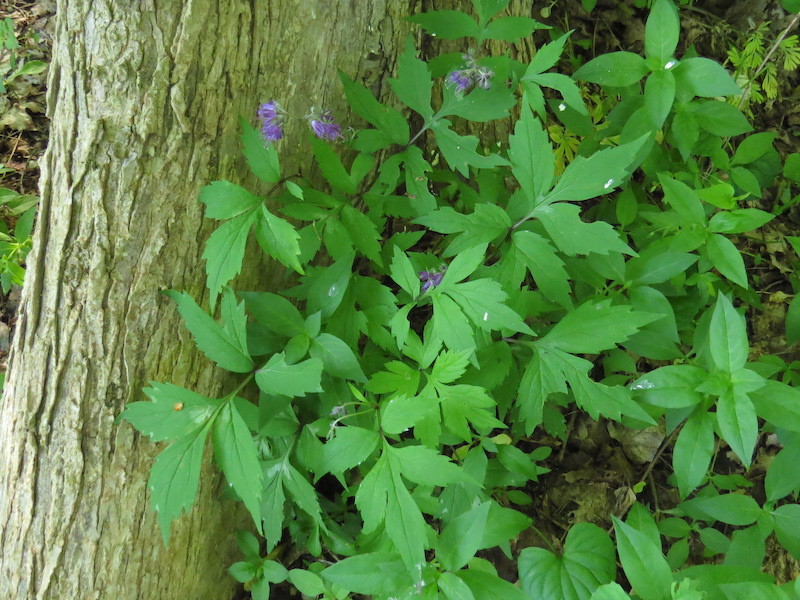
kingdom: Plantae
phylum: Tracheophyta
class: Magnoliopsida
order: Boraginales
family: Hydrophyllaceae
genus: Hydrophyllum
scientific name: Hydrophyllum virginianum
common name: Virginia waterleaf
